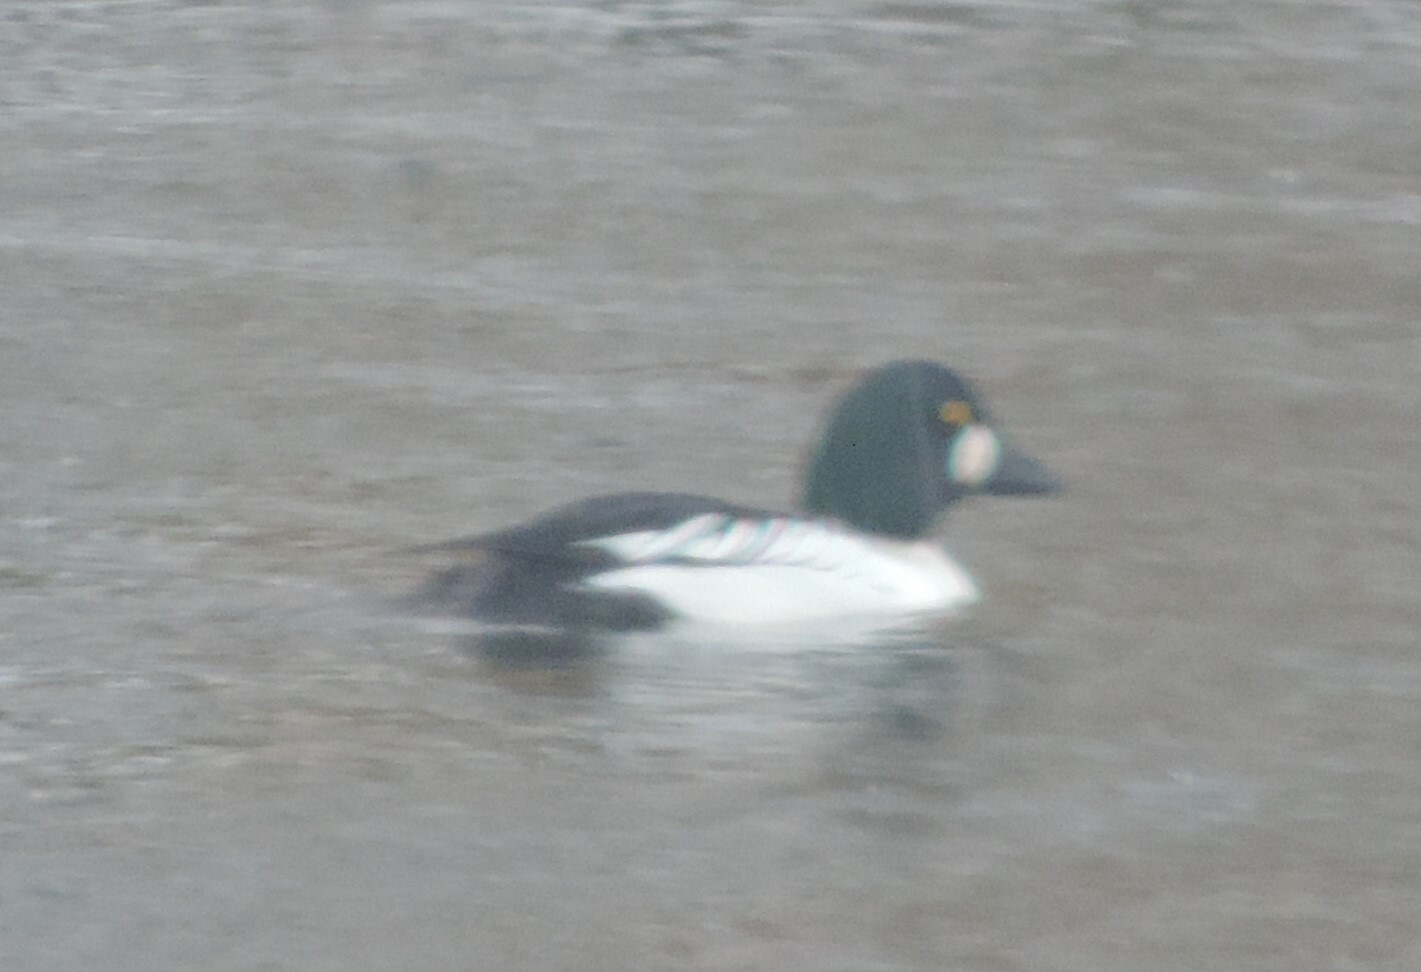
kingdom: Animalia
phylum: Chordata
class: Aves
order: Anseriformes
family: Anatidae
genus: Bucephala
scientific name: Bucephala clangula
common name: Common goldeneye
